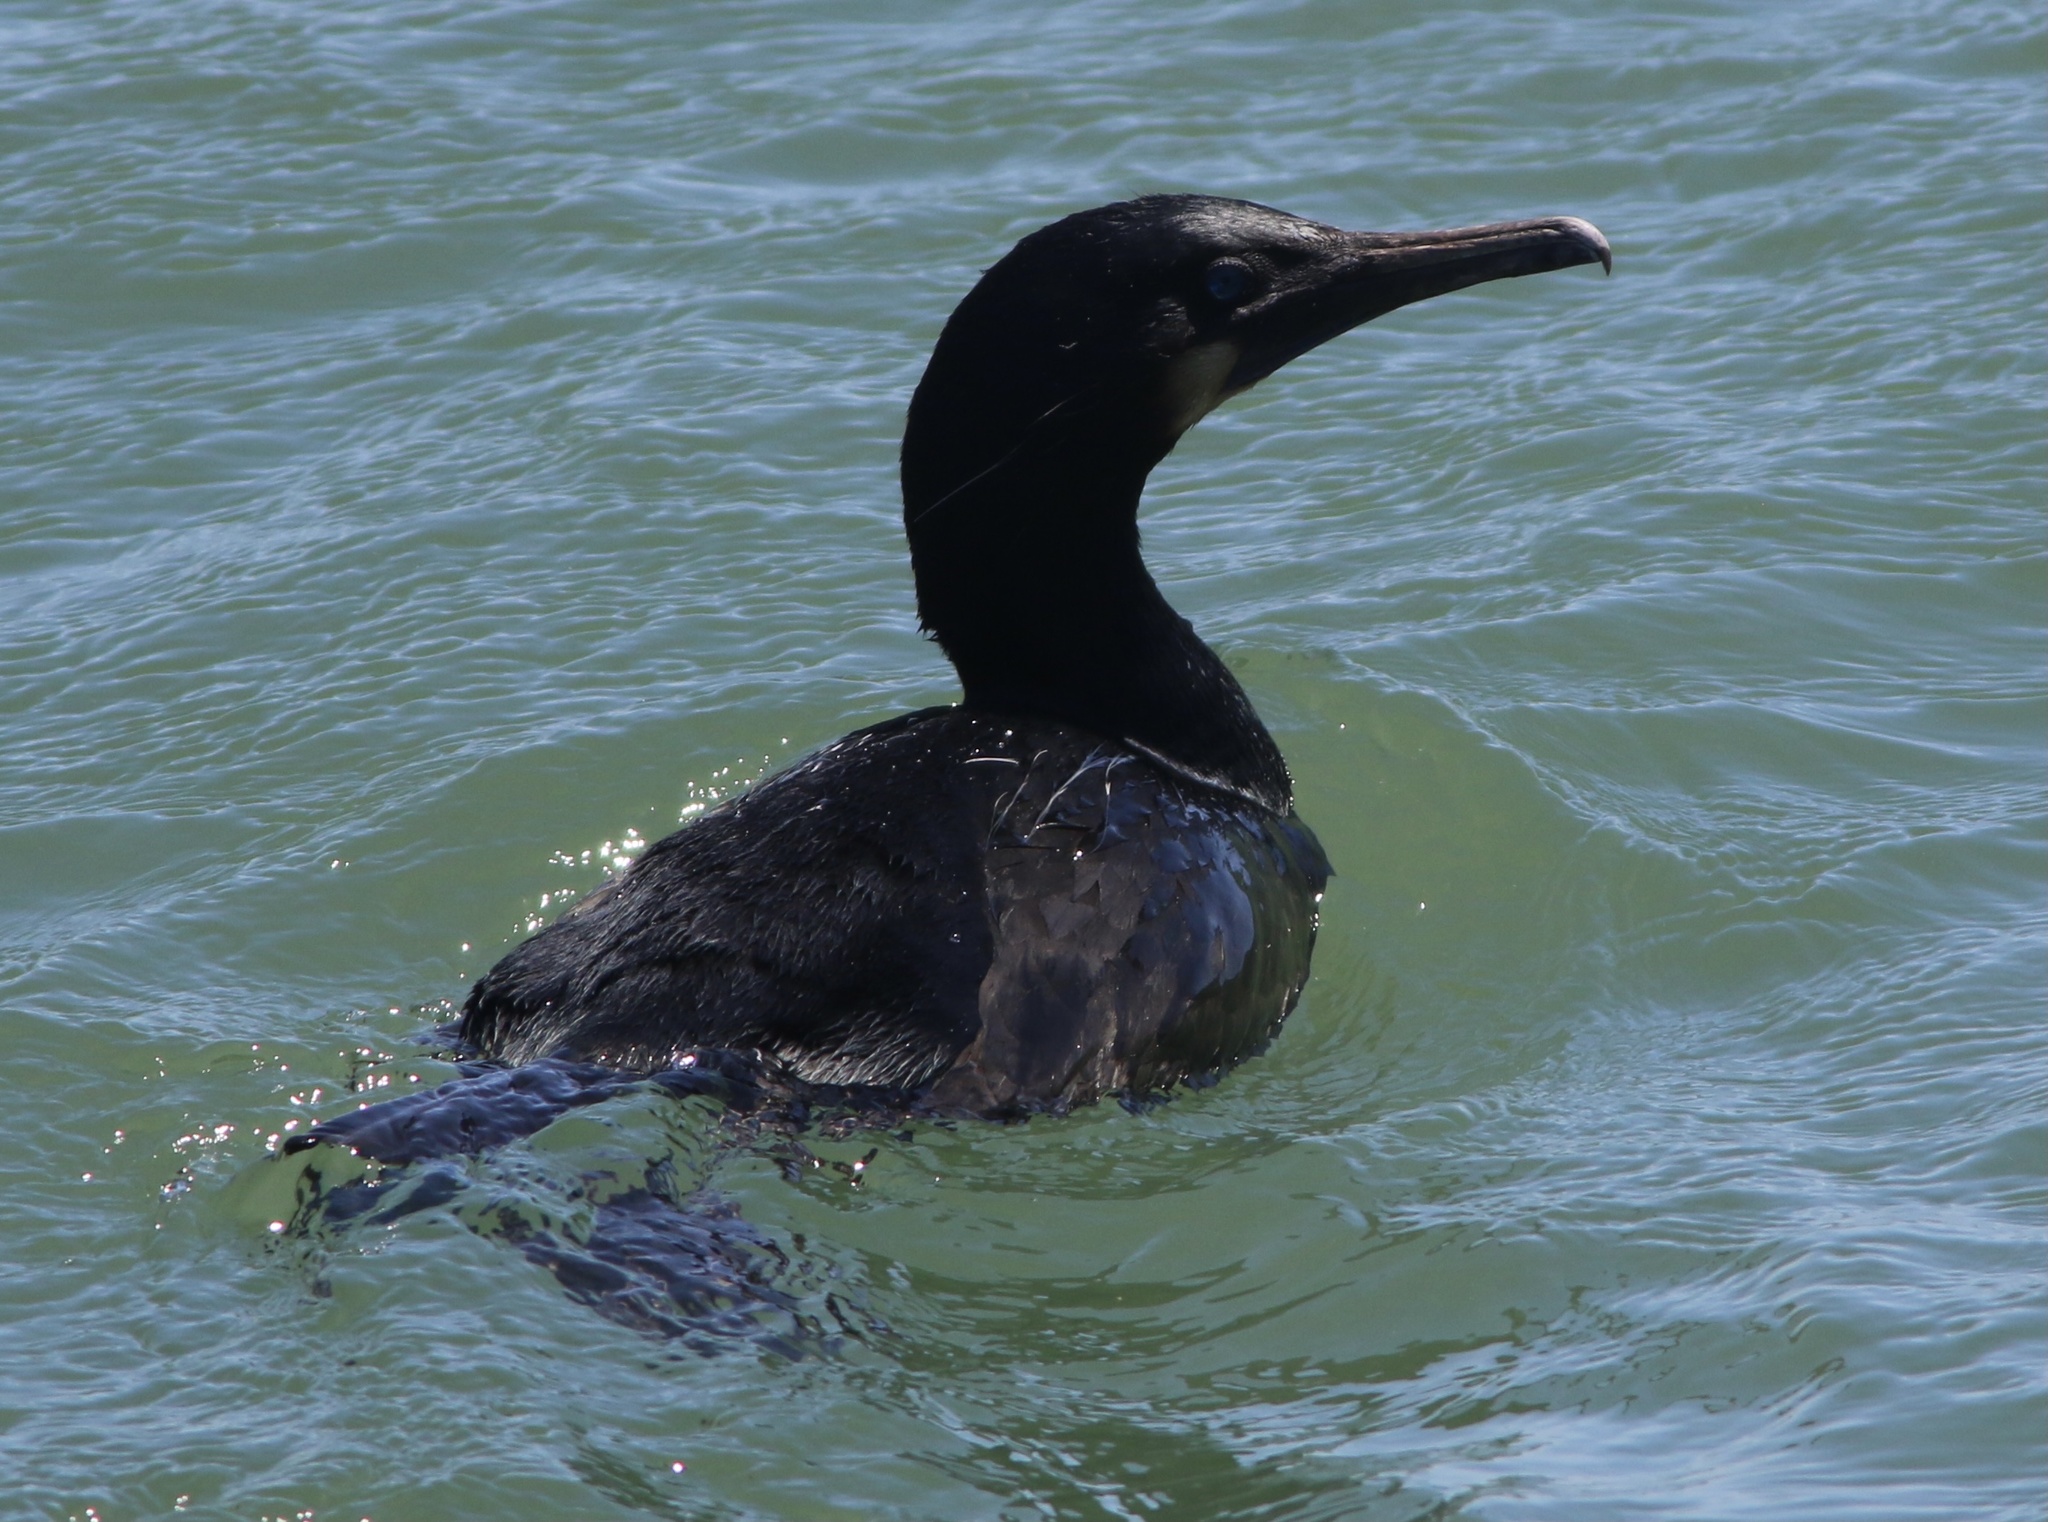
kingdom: Animalia
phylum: Chordata
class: Aves
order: Suliformes
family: Phalacrocoracidae
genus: Urile
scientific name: Urile penicillatus
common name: Brandt's cormorant
